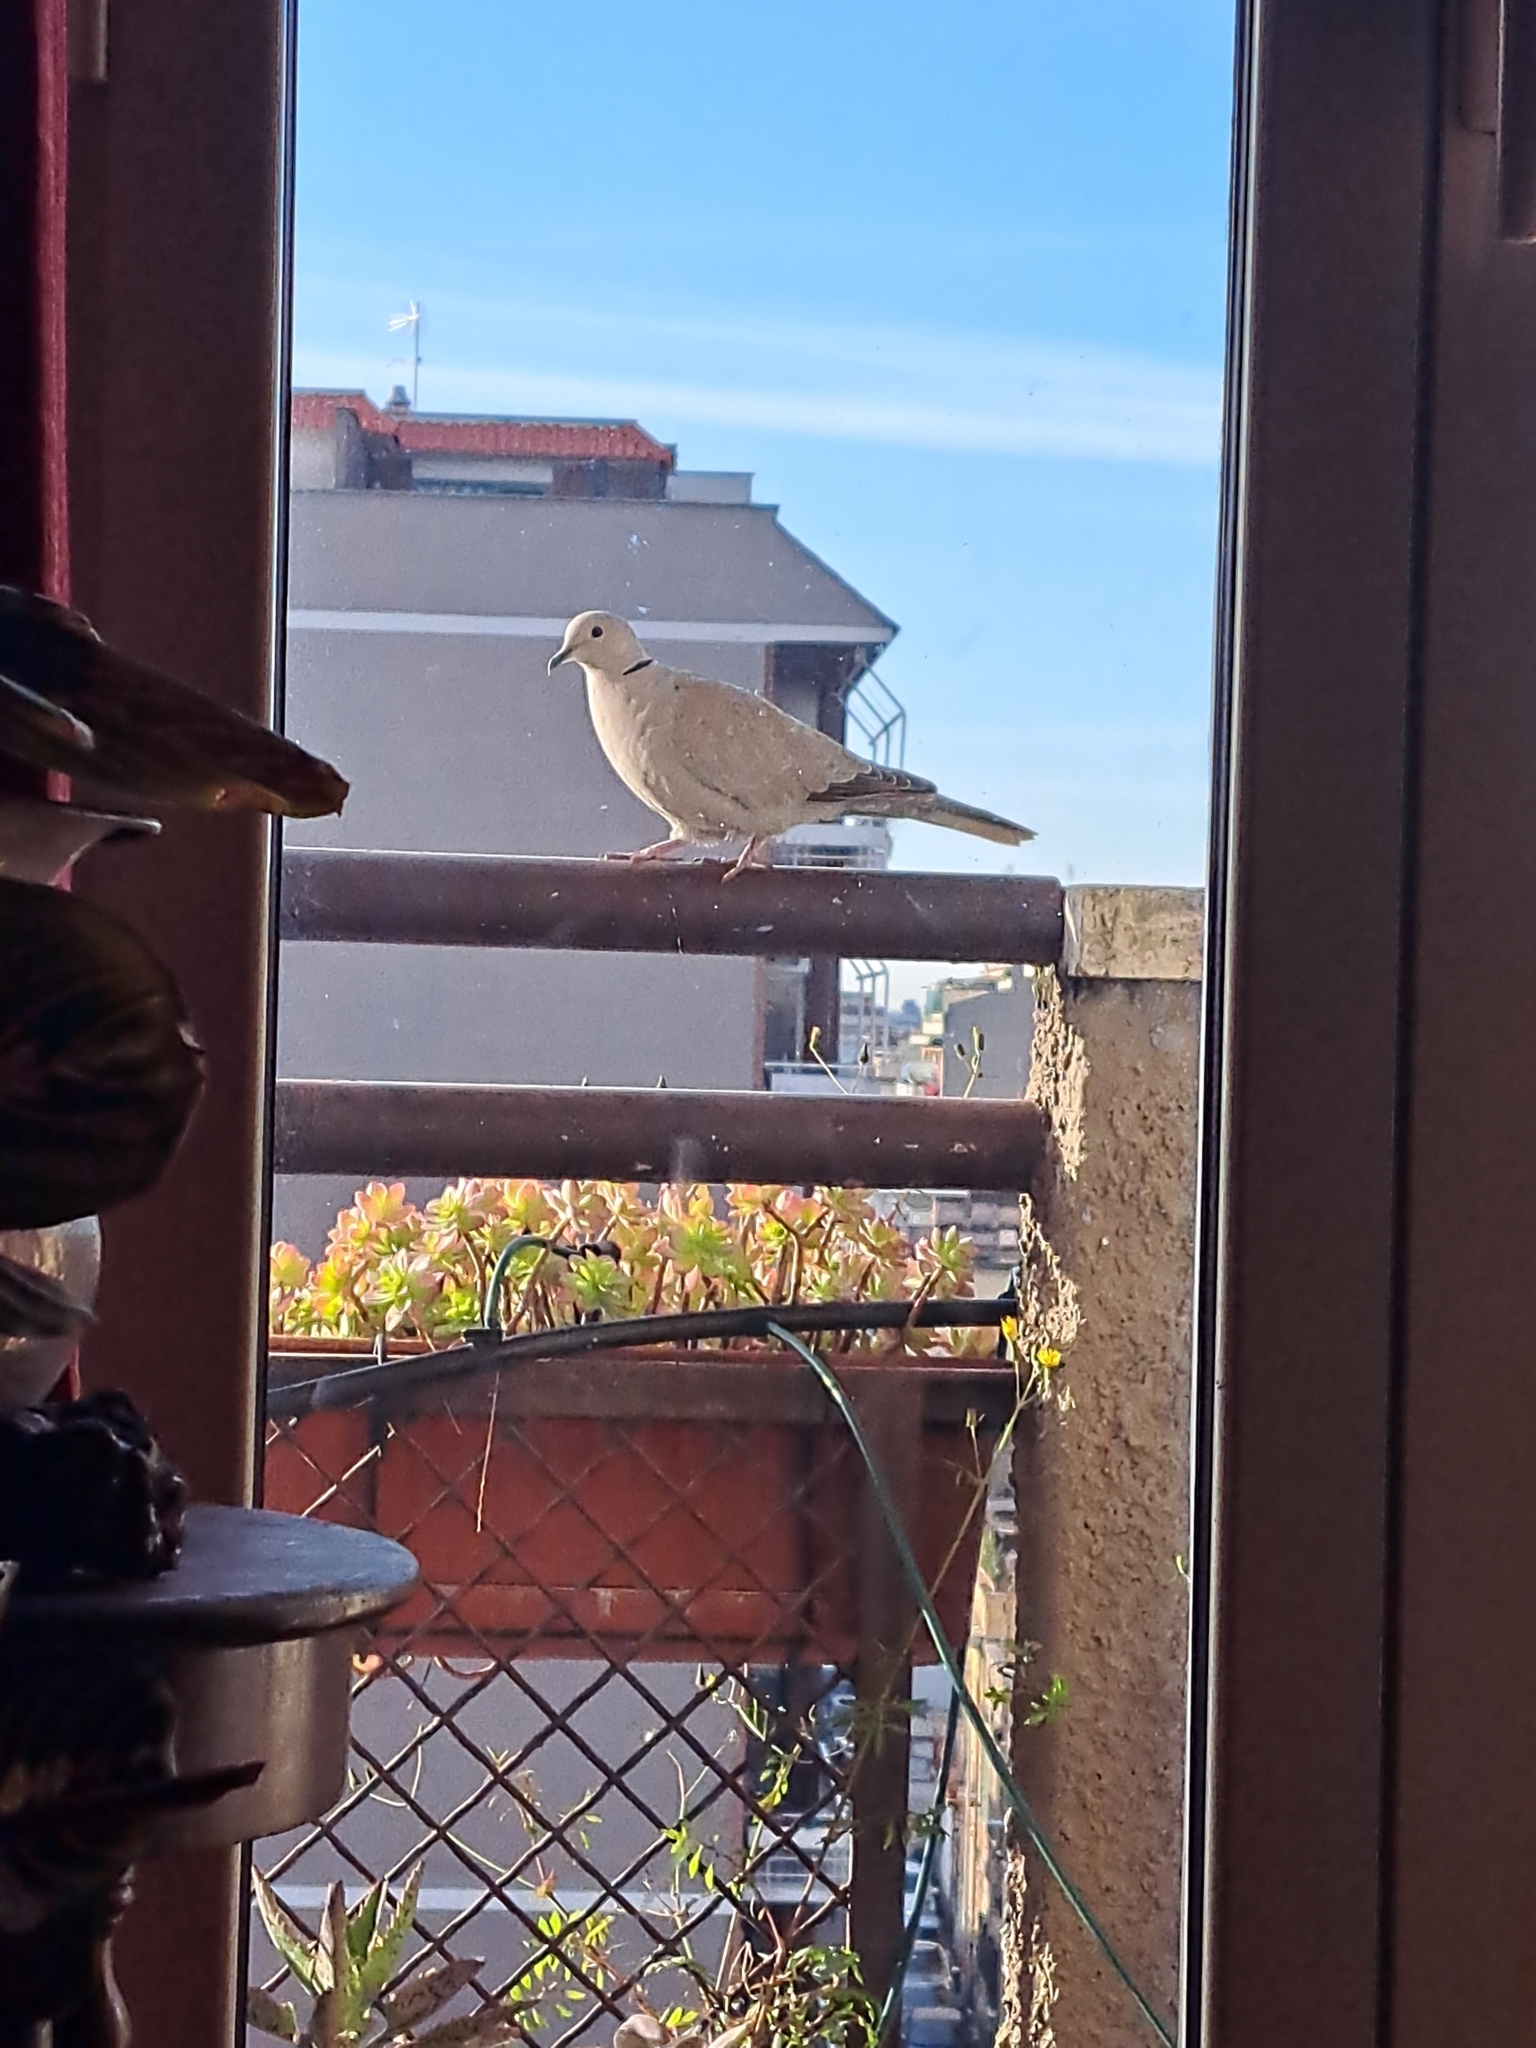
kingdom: Animalia
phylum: Chordata
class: Aves
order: Columbiformes
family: Columbidae
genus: Streptopelia
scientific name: Streptopelia decaocto
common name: Eurasian collared dove
